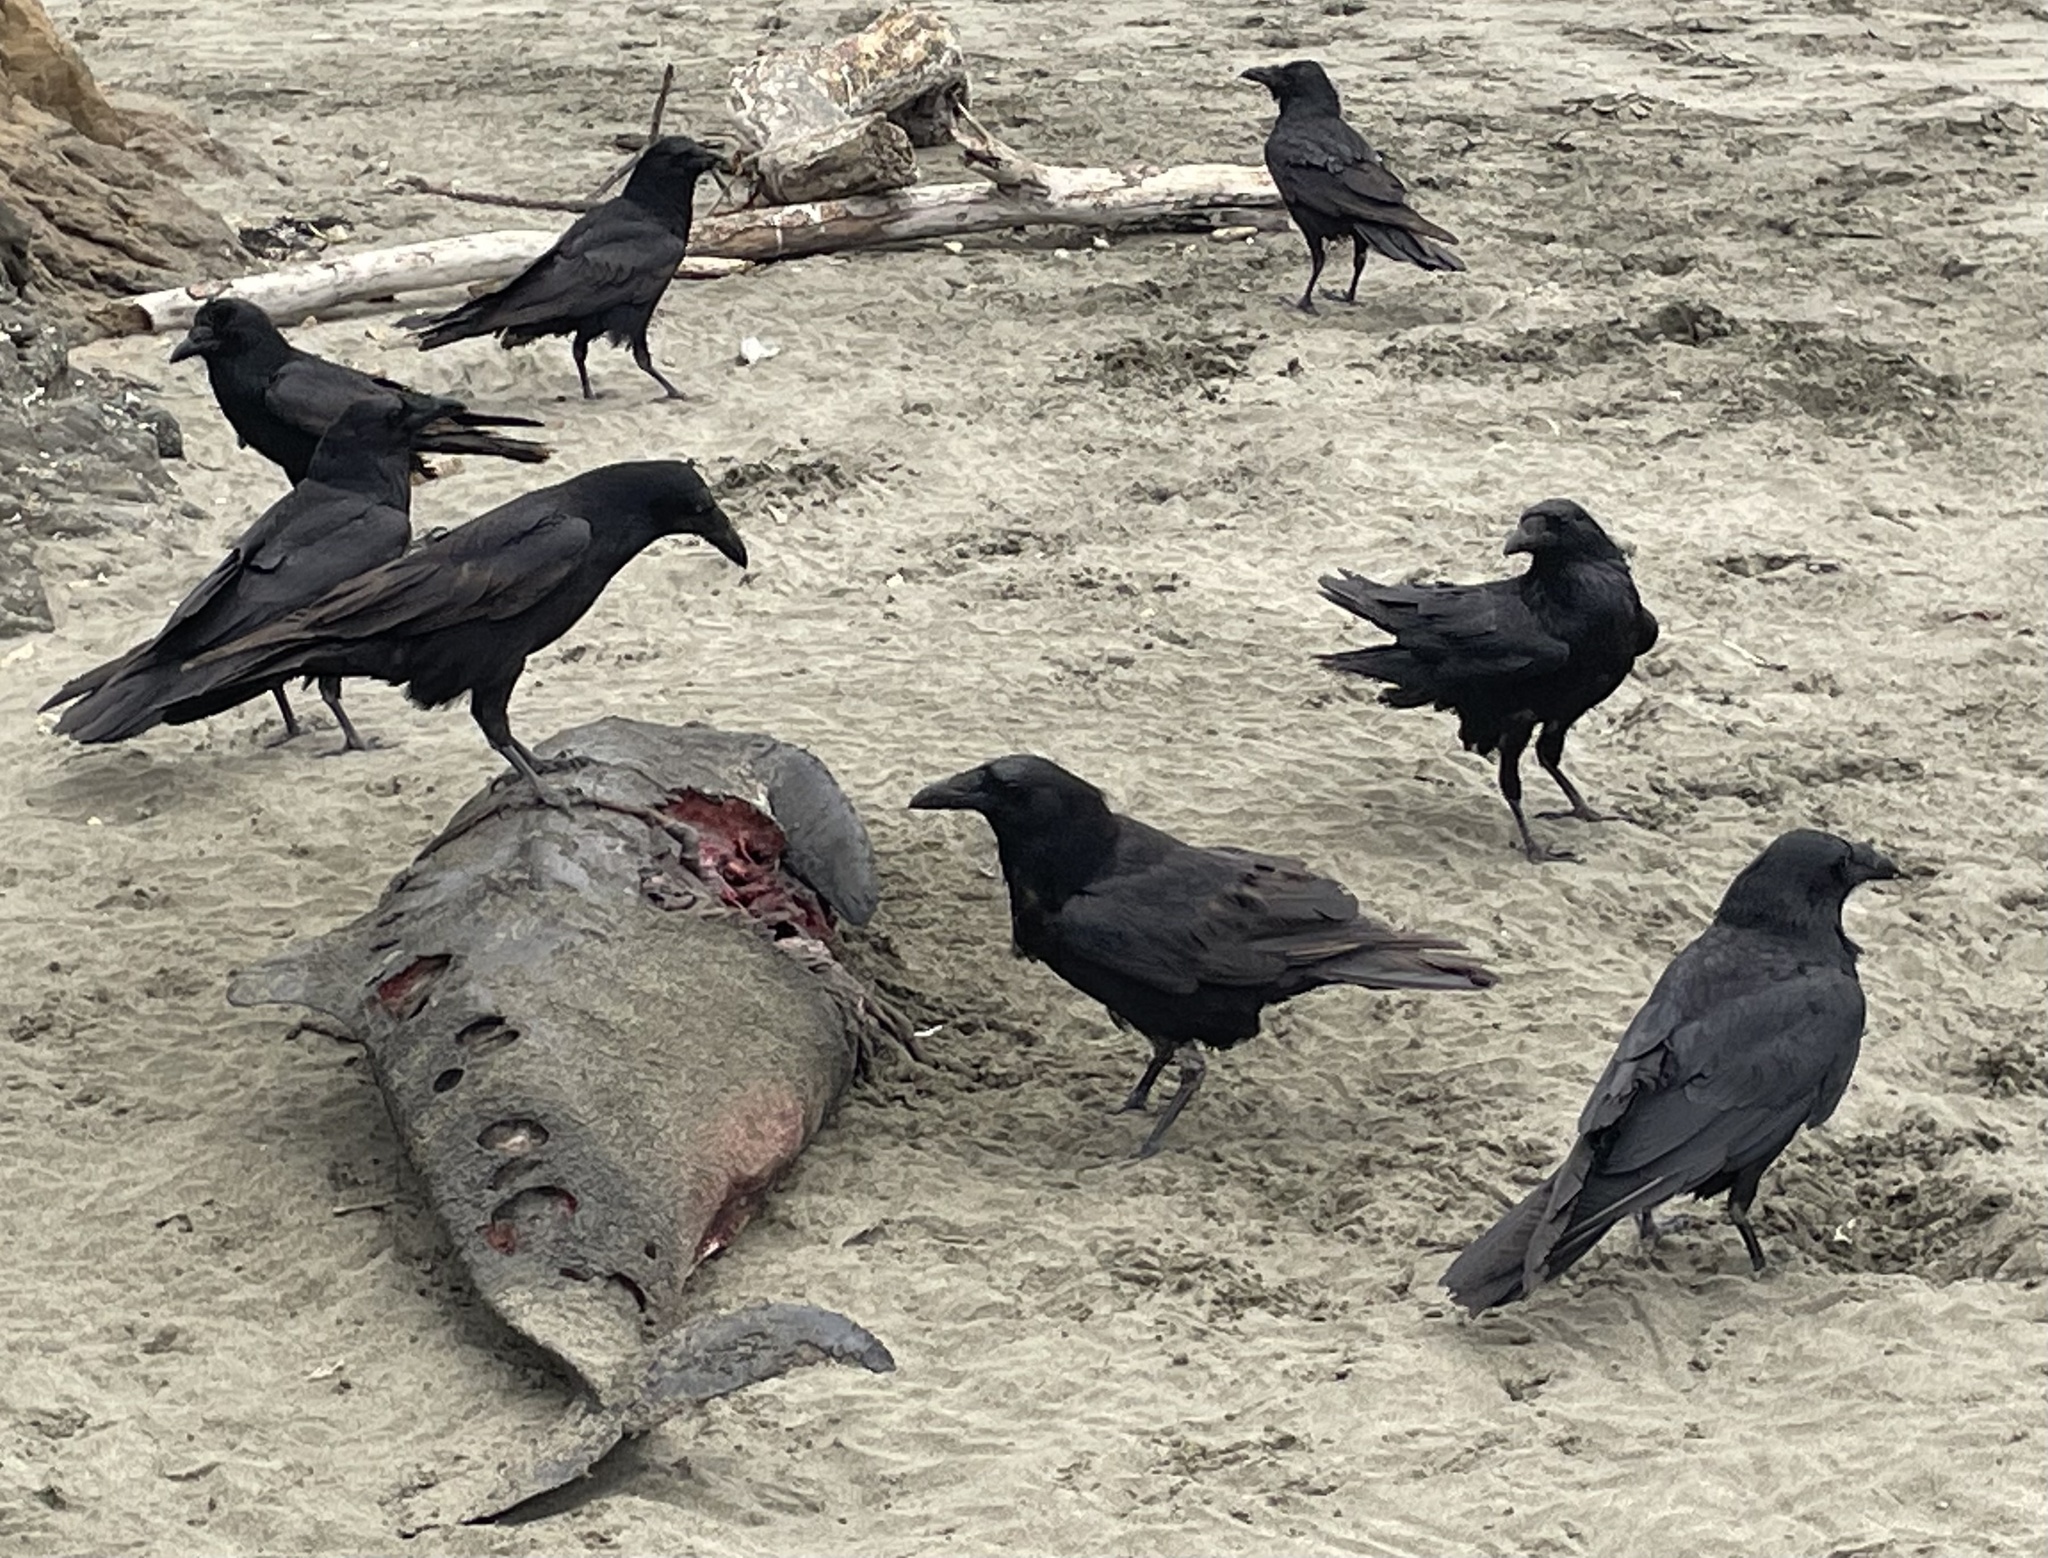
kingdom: Animalia
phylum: Chordata
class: Aves
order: Passeriformes
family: Corvidae
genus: Corvus
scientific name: Corvus corax
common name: Common raven
